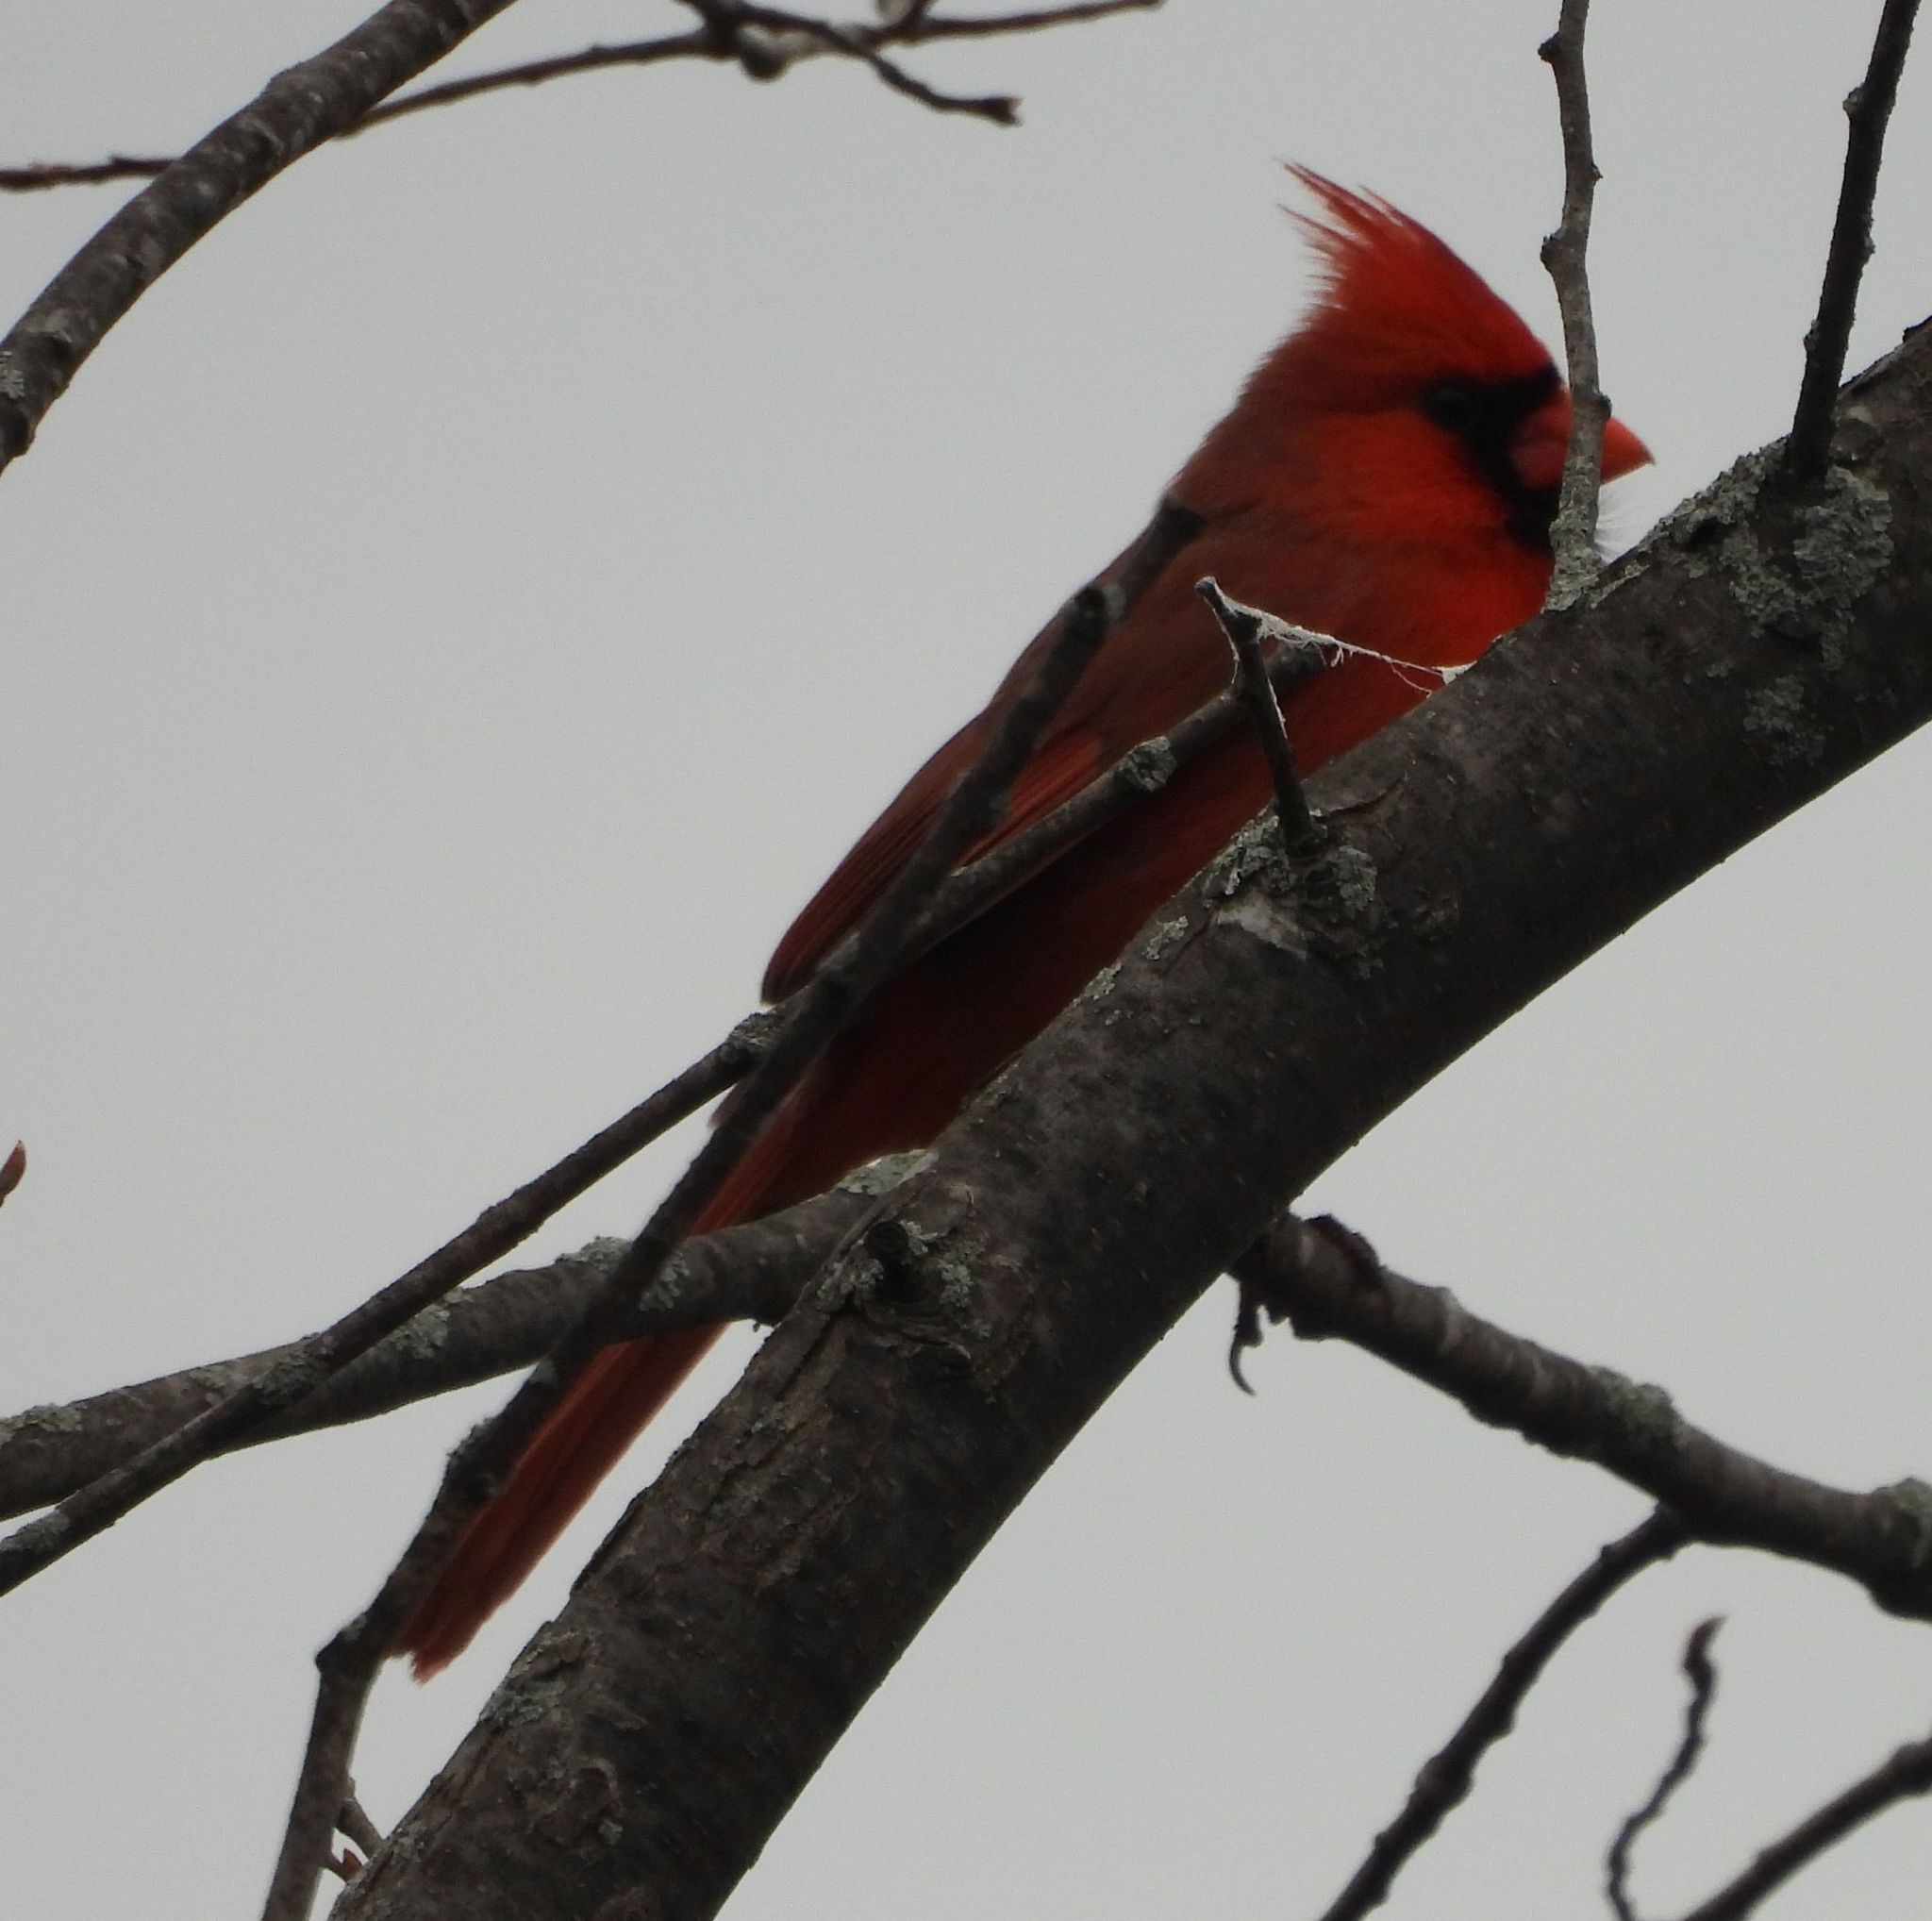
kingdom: Animalia
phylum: Chordata
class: Aves
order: Passeriformes
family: Cardinalidae
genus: Cardinalis
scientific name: Cardinalis cardinalis
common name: Northern cardinal
